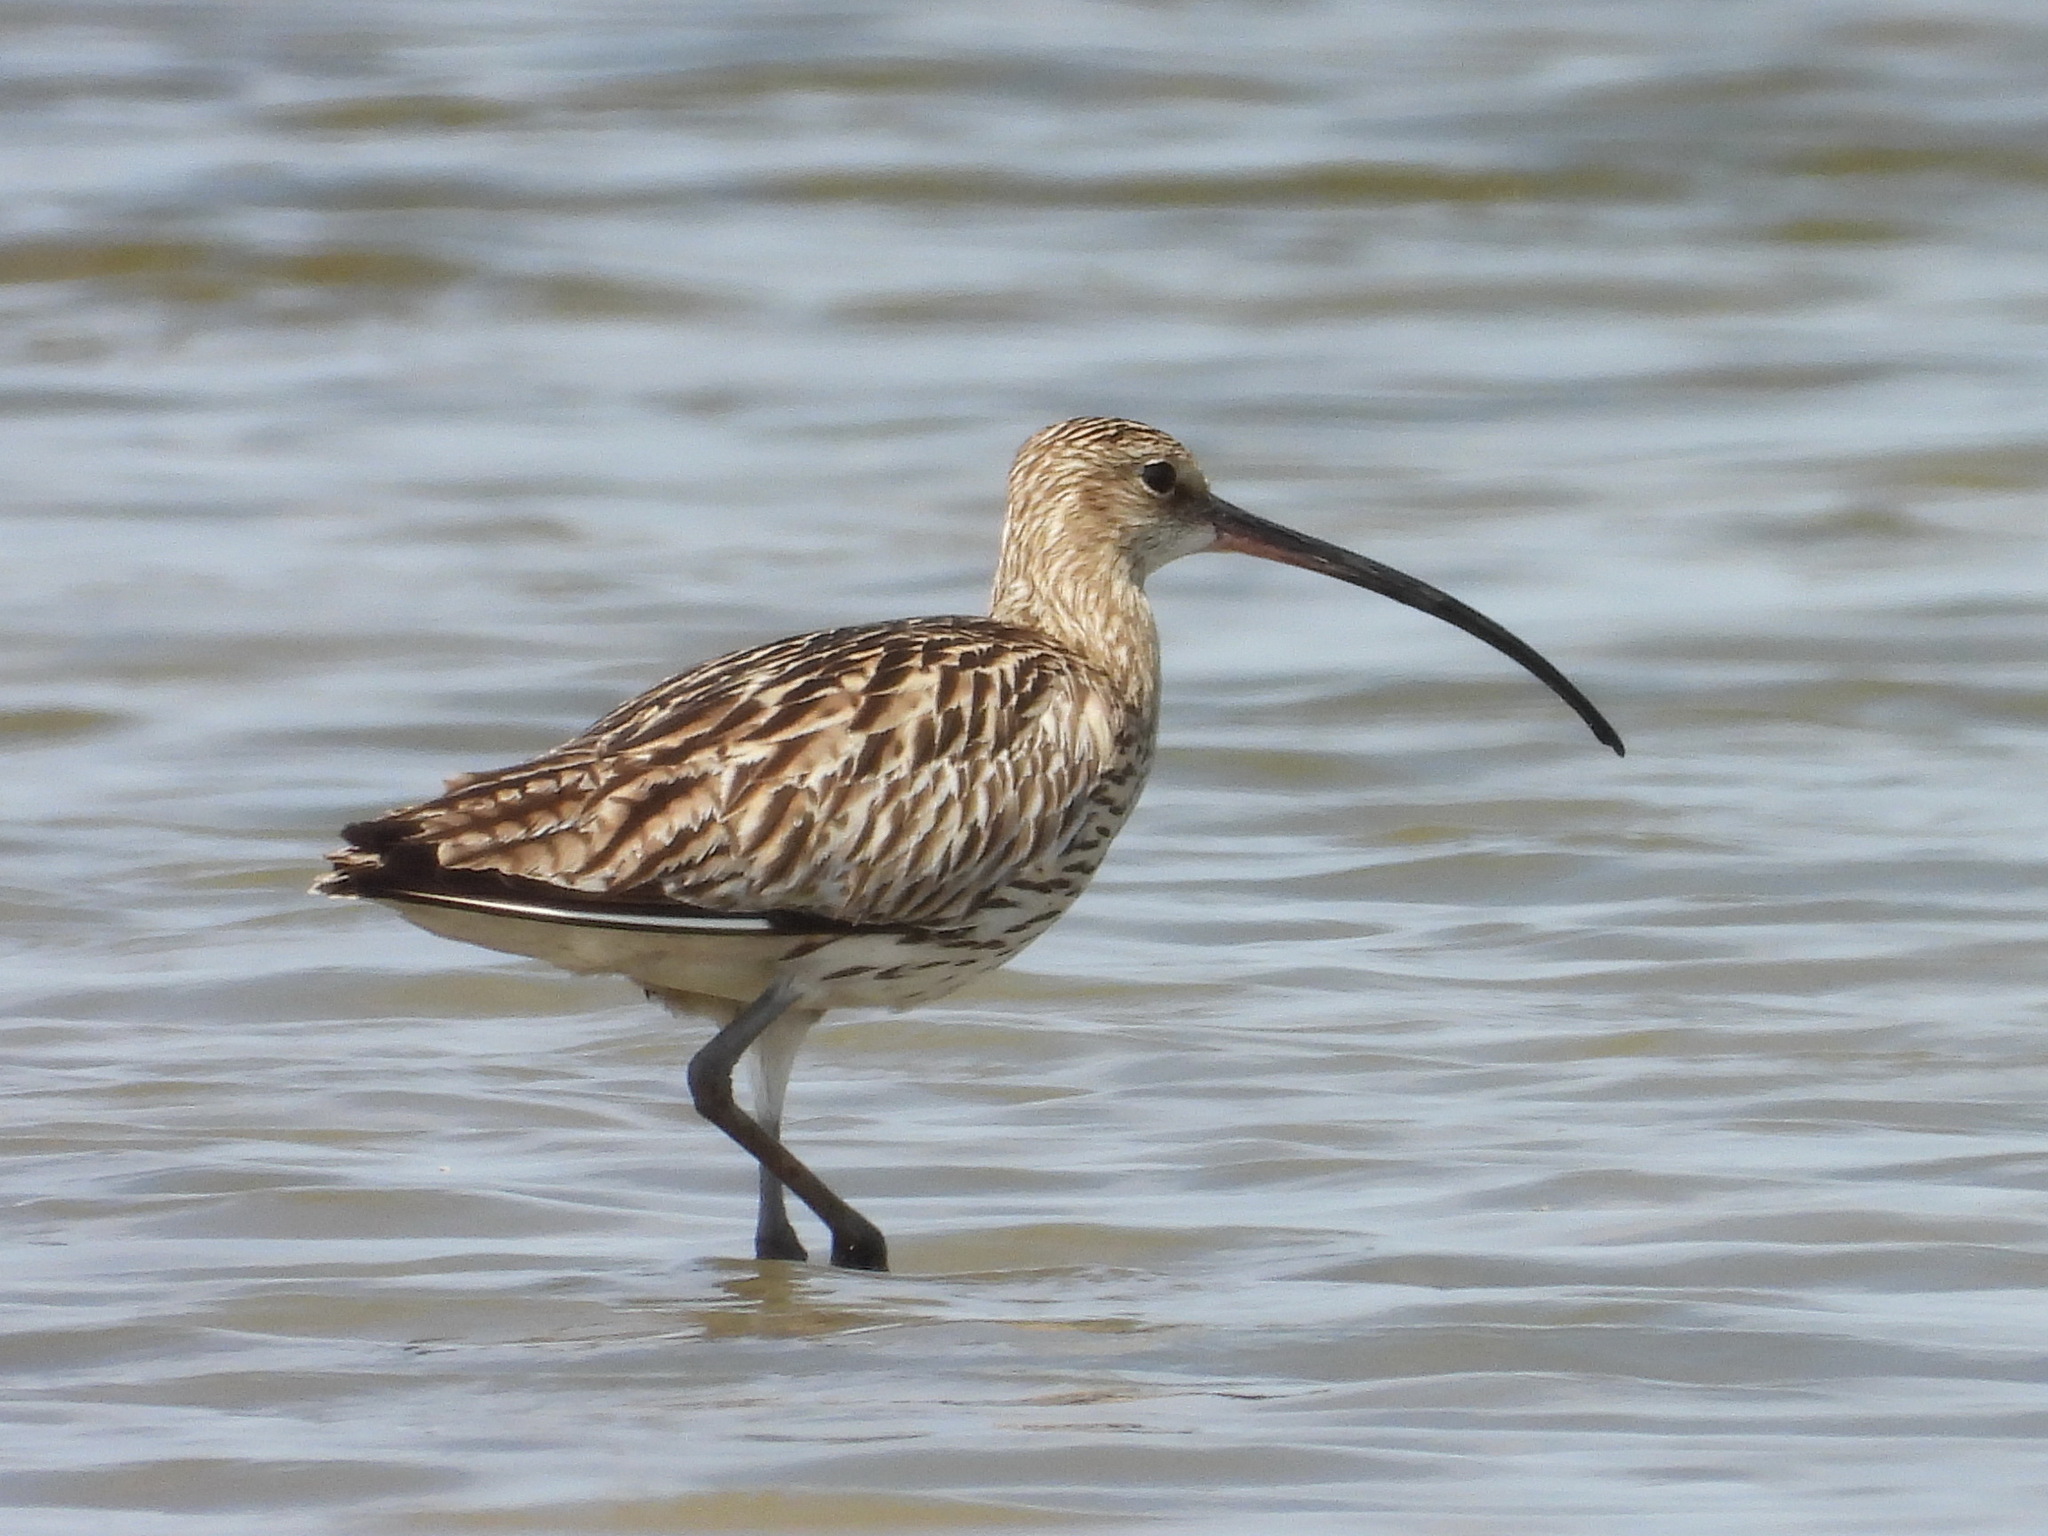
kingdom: Animalia
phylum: Chordata
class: Aves
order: Charadriiformes
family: Scolopacidae
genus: Numenius
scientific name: Numenius arquata
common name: Eurasian curlew
